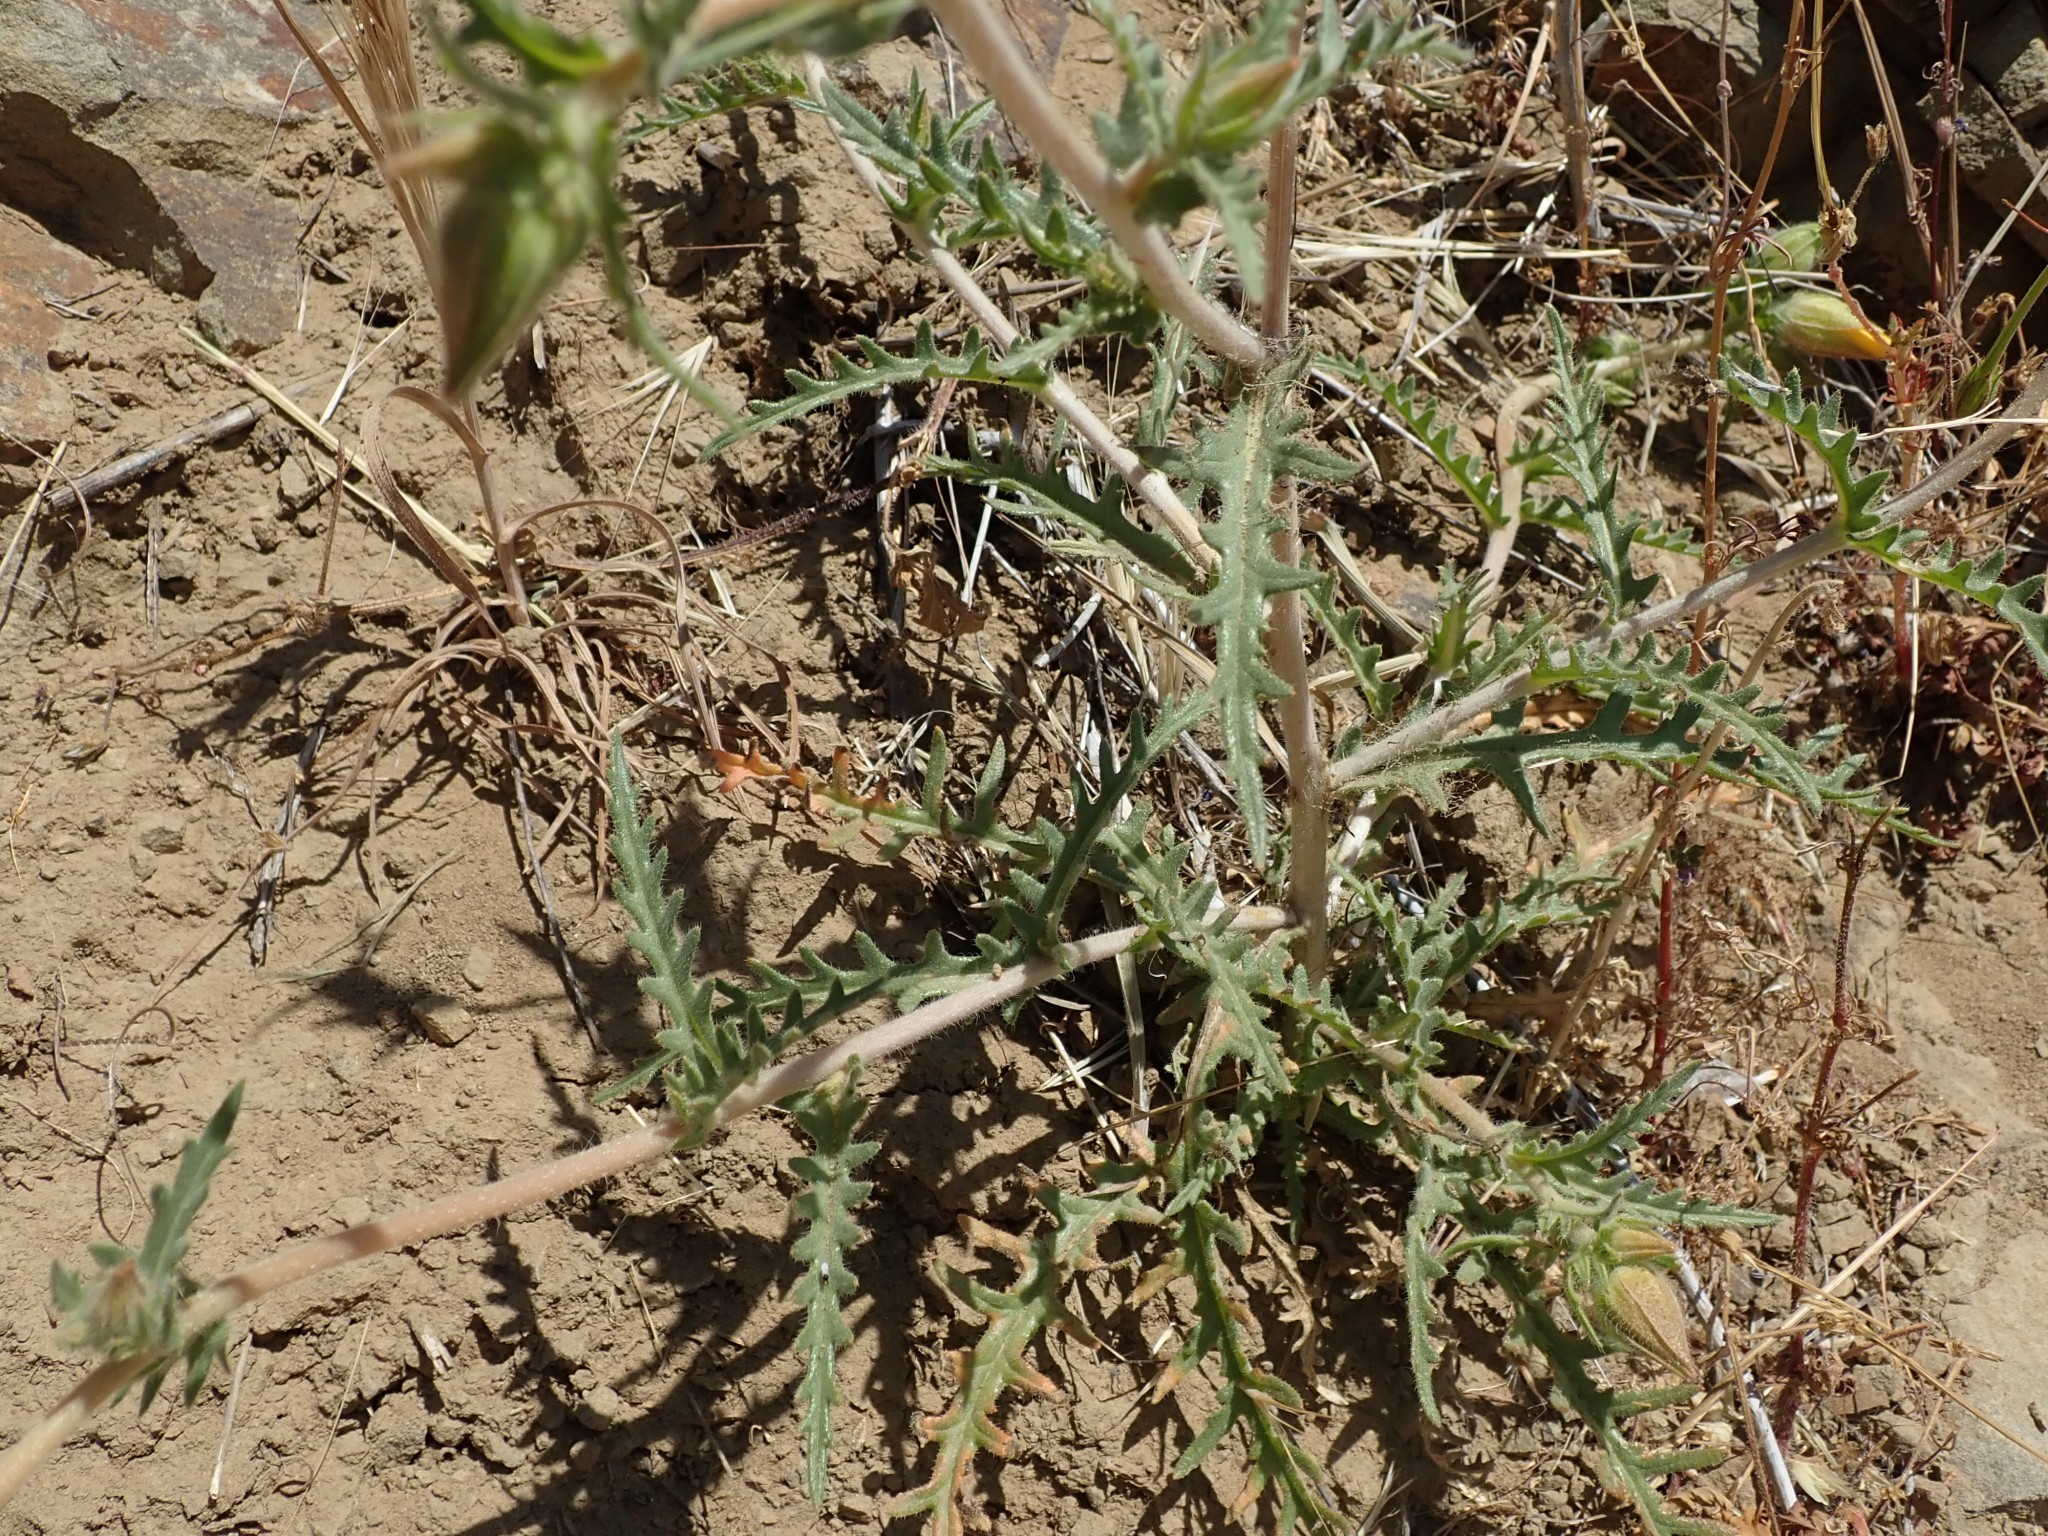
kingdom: Plantae
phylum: Tracheophyta
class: Magnoliopsida
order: Cornales
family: Loasaceae
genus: Mentzelia
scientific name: Mentzelia lindleyi
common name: Golden bartonia
